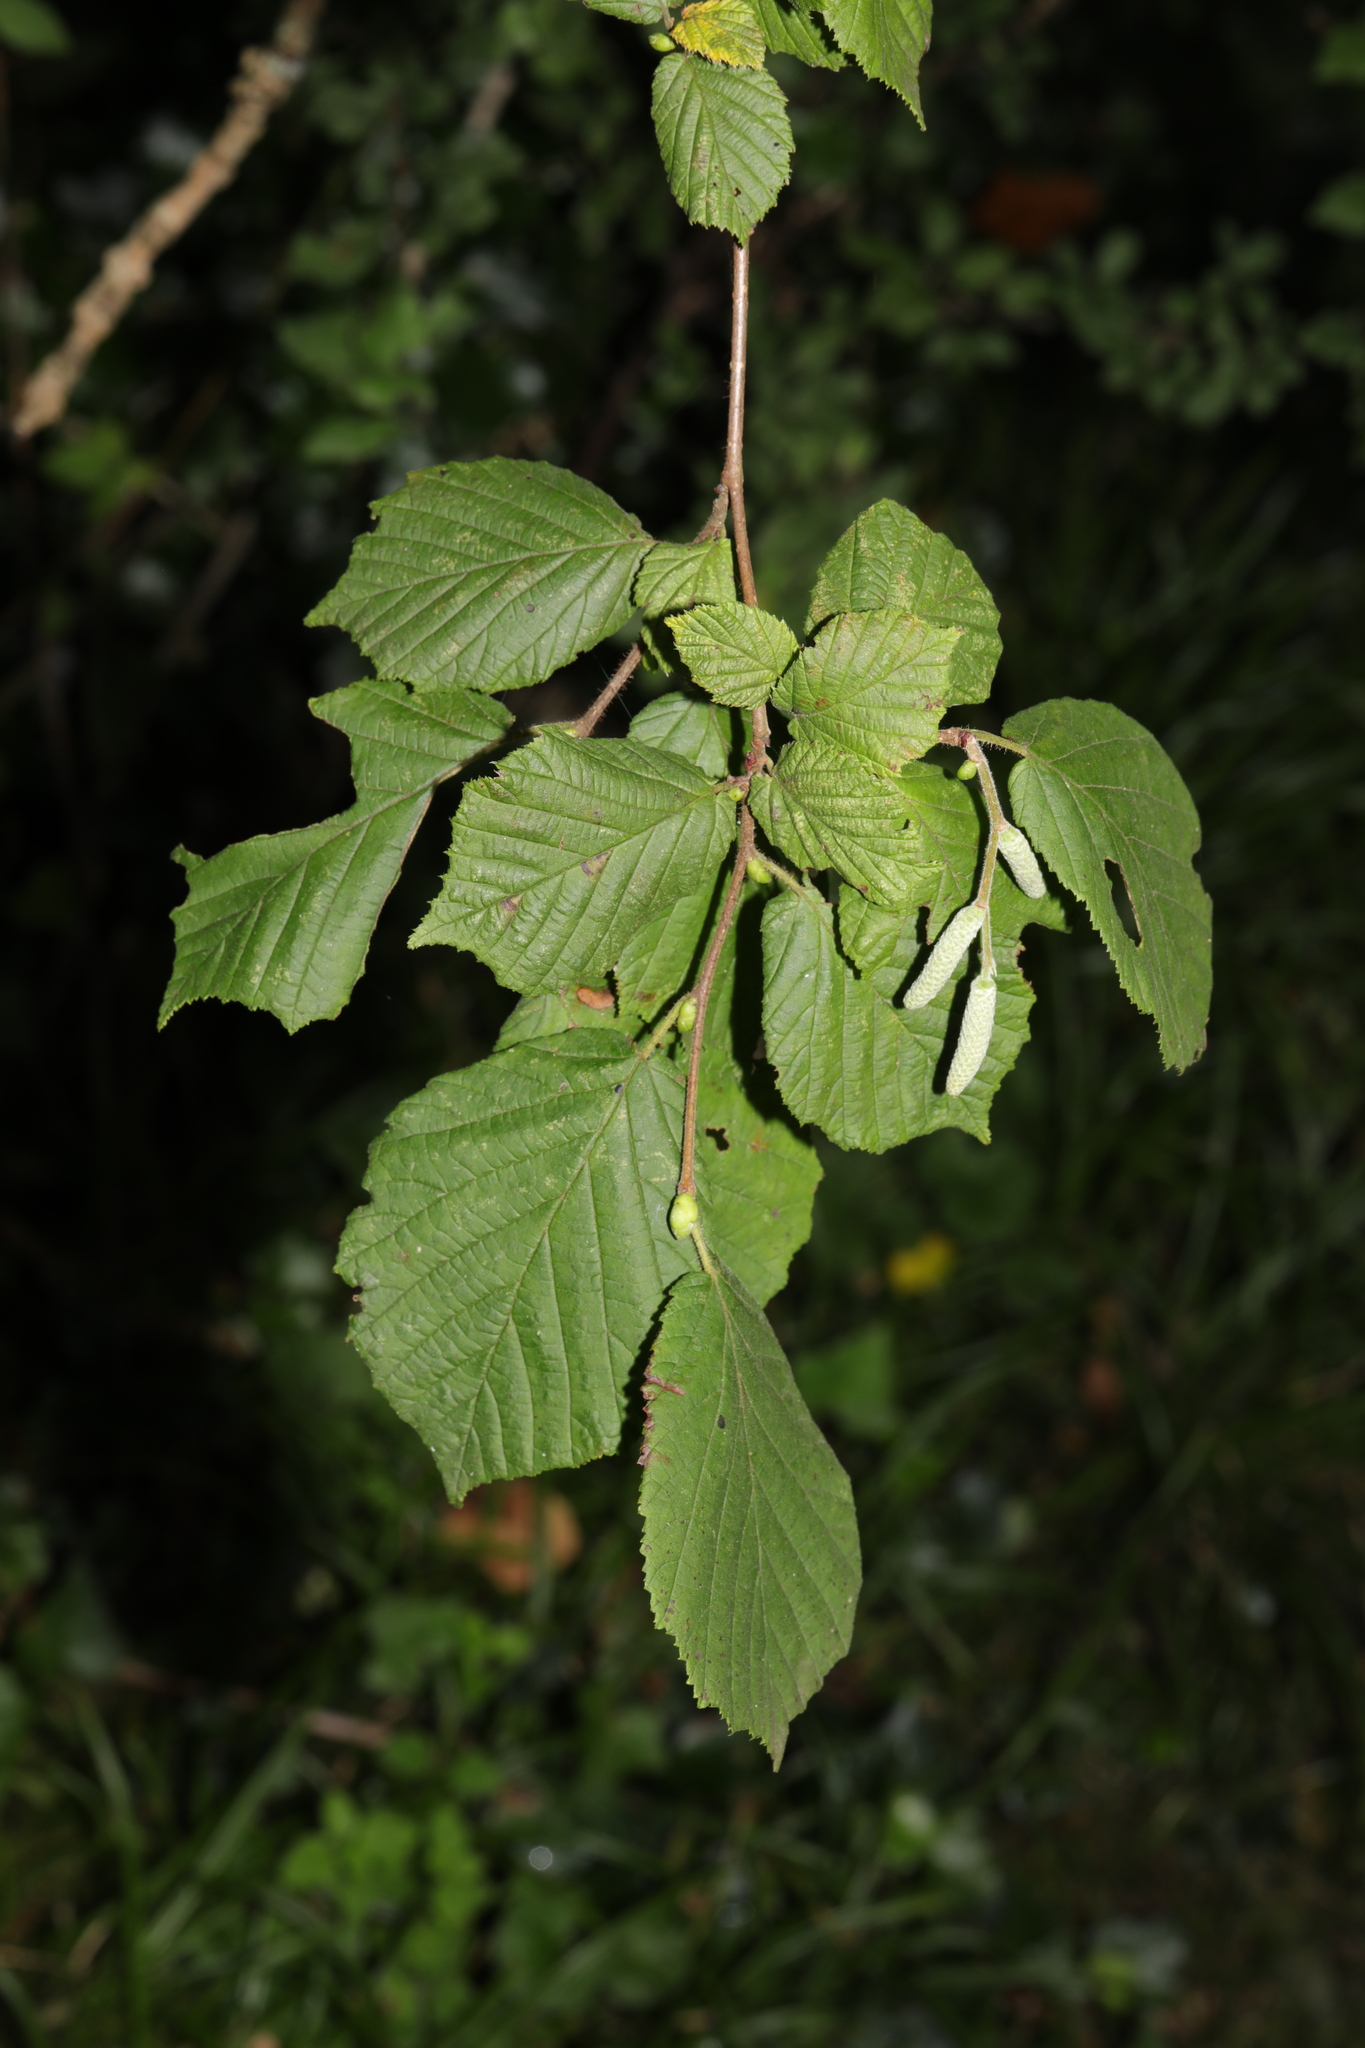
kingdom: Plantae
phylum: Tracheophyta
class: Magnoliopsida
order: Fagales
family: Betulaceae
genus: Corylus
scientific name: Corylus avellana
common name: European hazel
